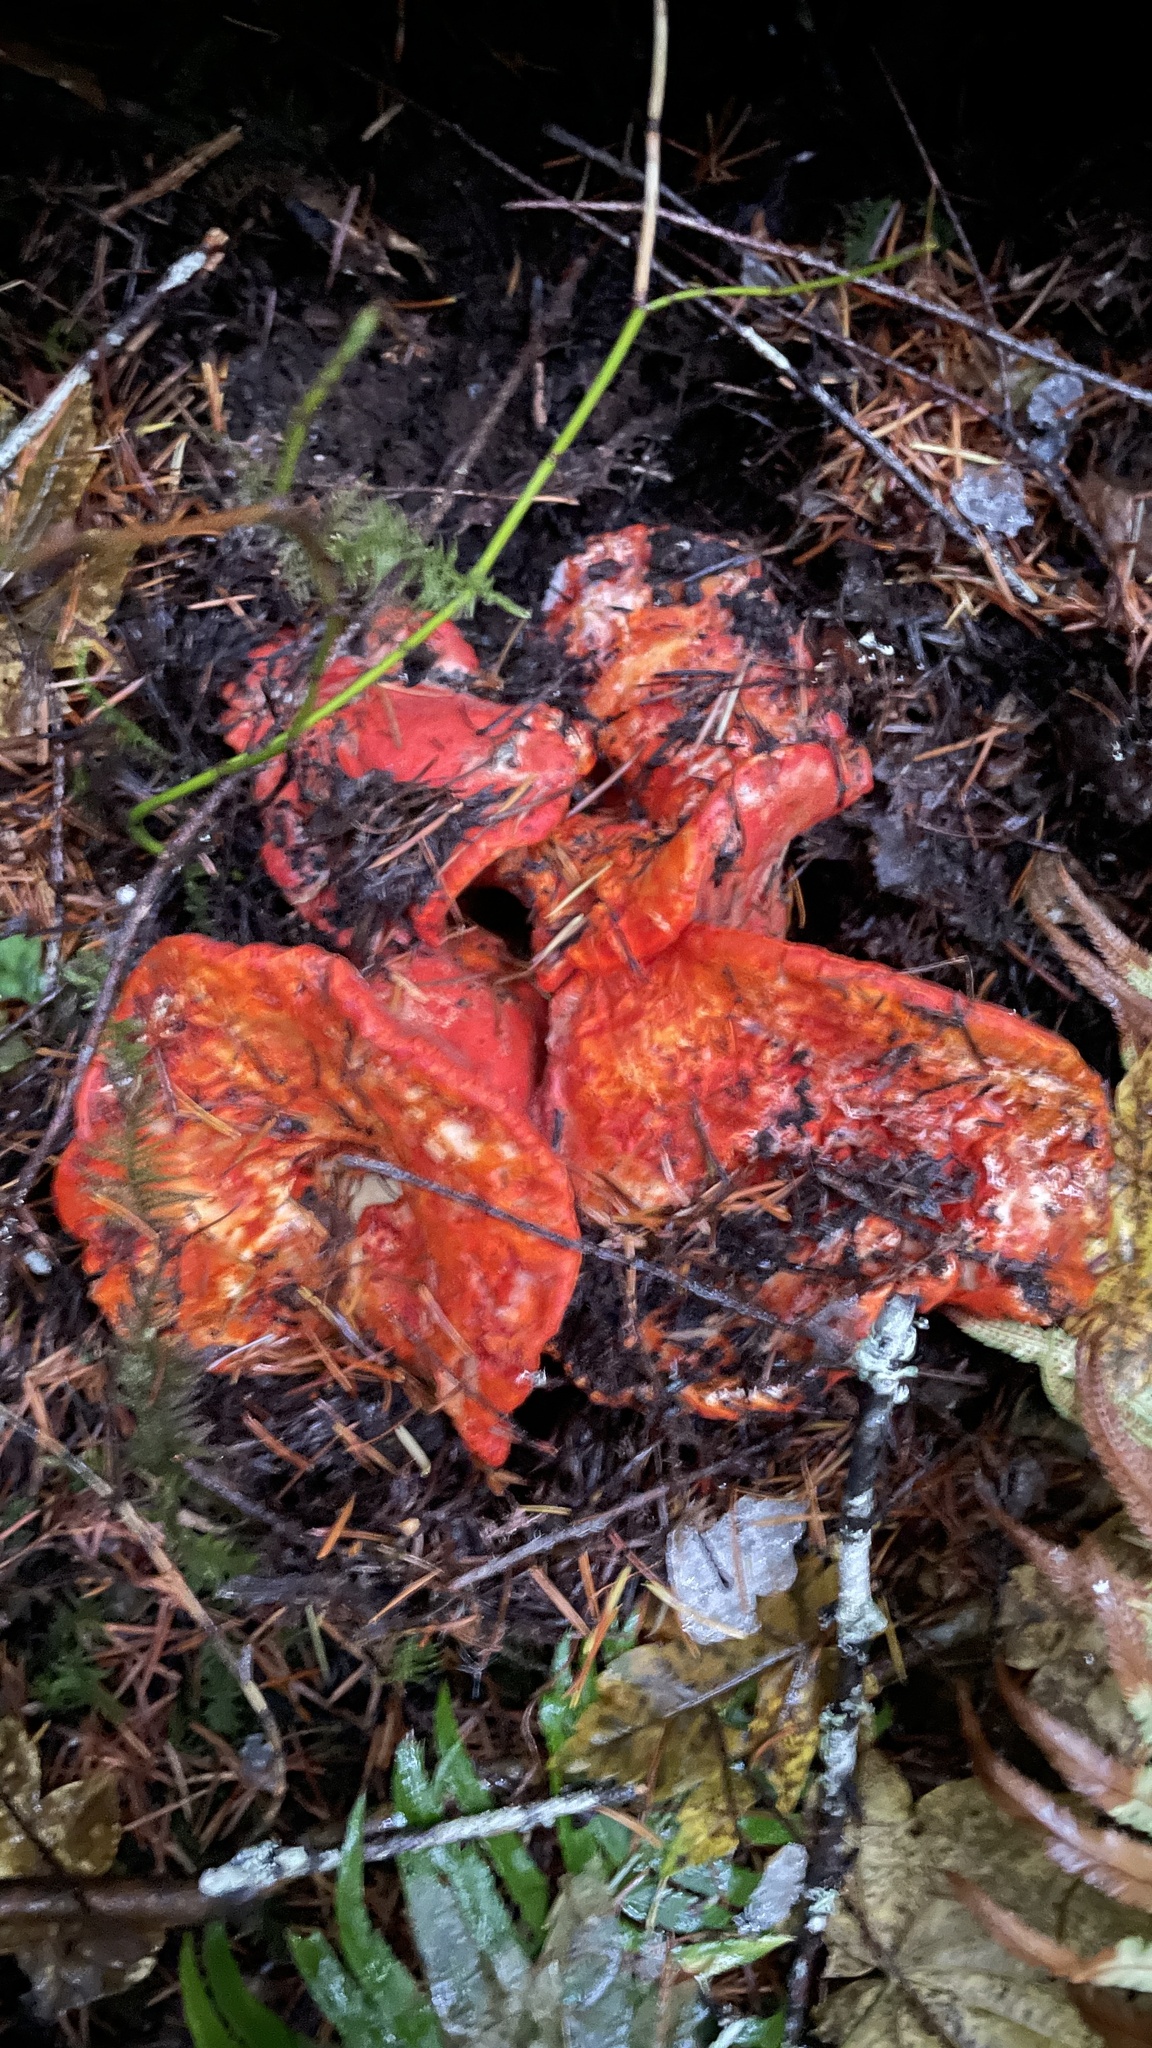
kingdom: Fungi
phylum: Ascomycota
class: Sordariomycetes
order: Hypocreales
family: Hypocreaceae
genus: Hypomyces
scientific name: Hypomyces lactifluorum
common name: Lobster mushroom
